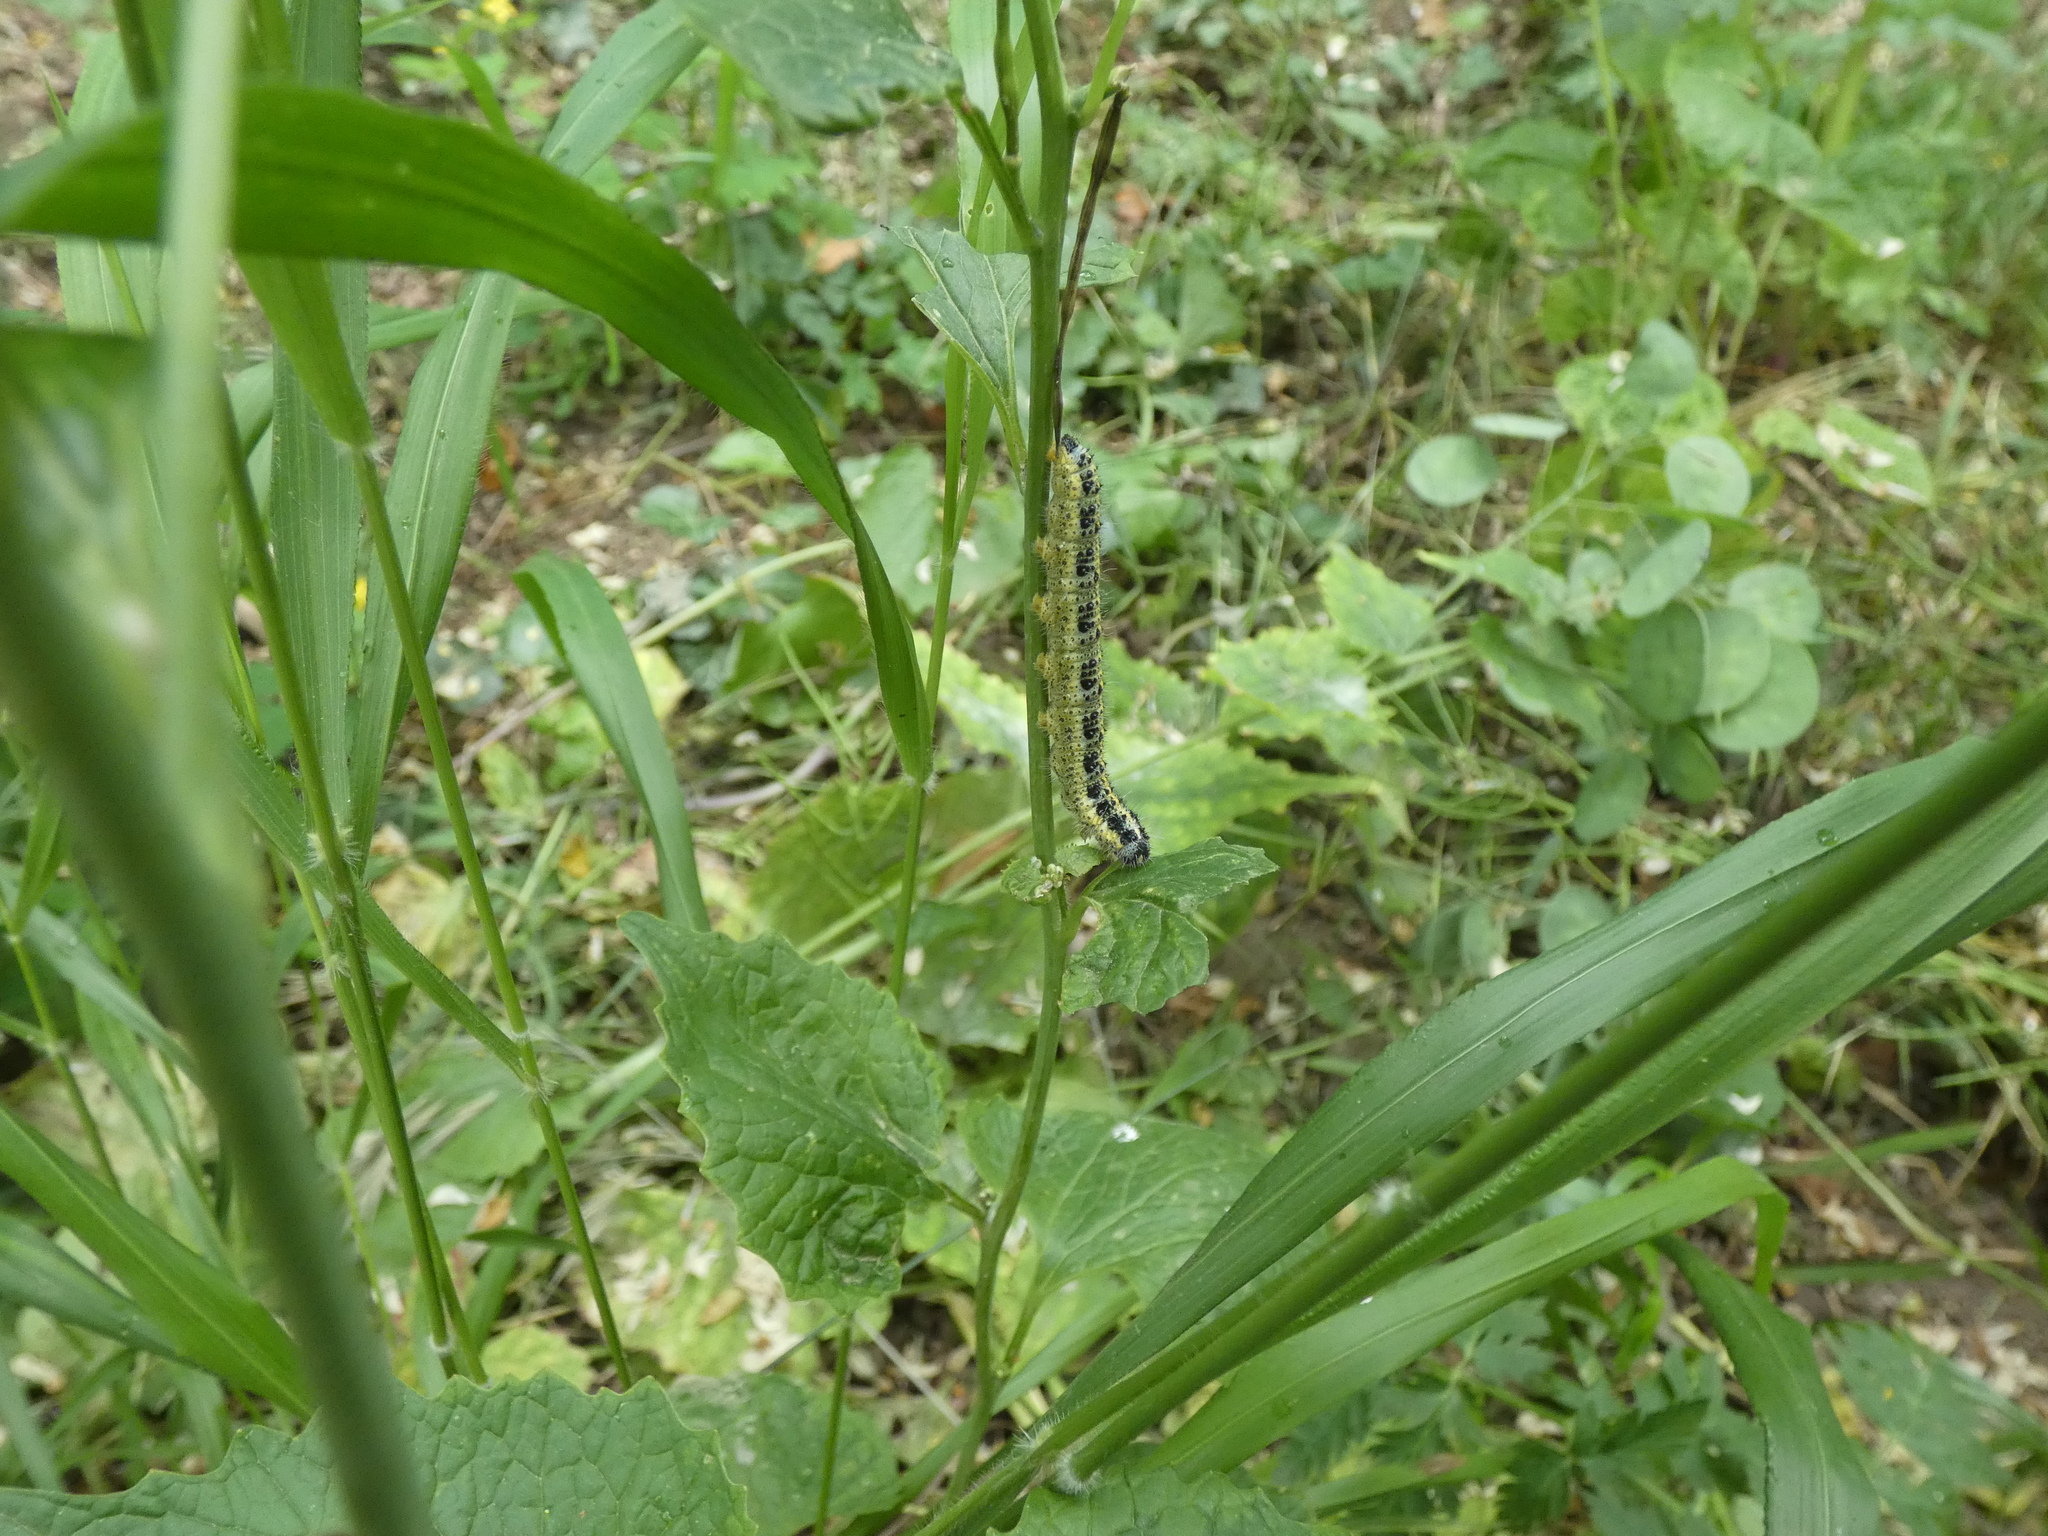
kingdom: Animalia
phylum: Arthropoda
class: Insecta
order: Lepidoptera
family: Pieridae
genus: Pieris
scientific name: Pieris brassicae
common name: Large white
